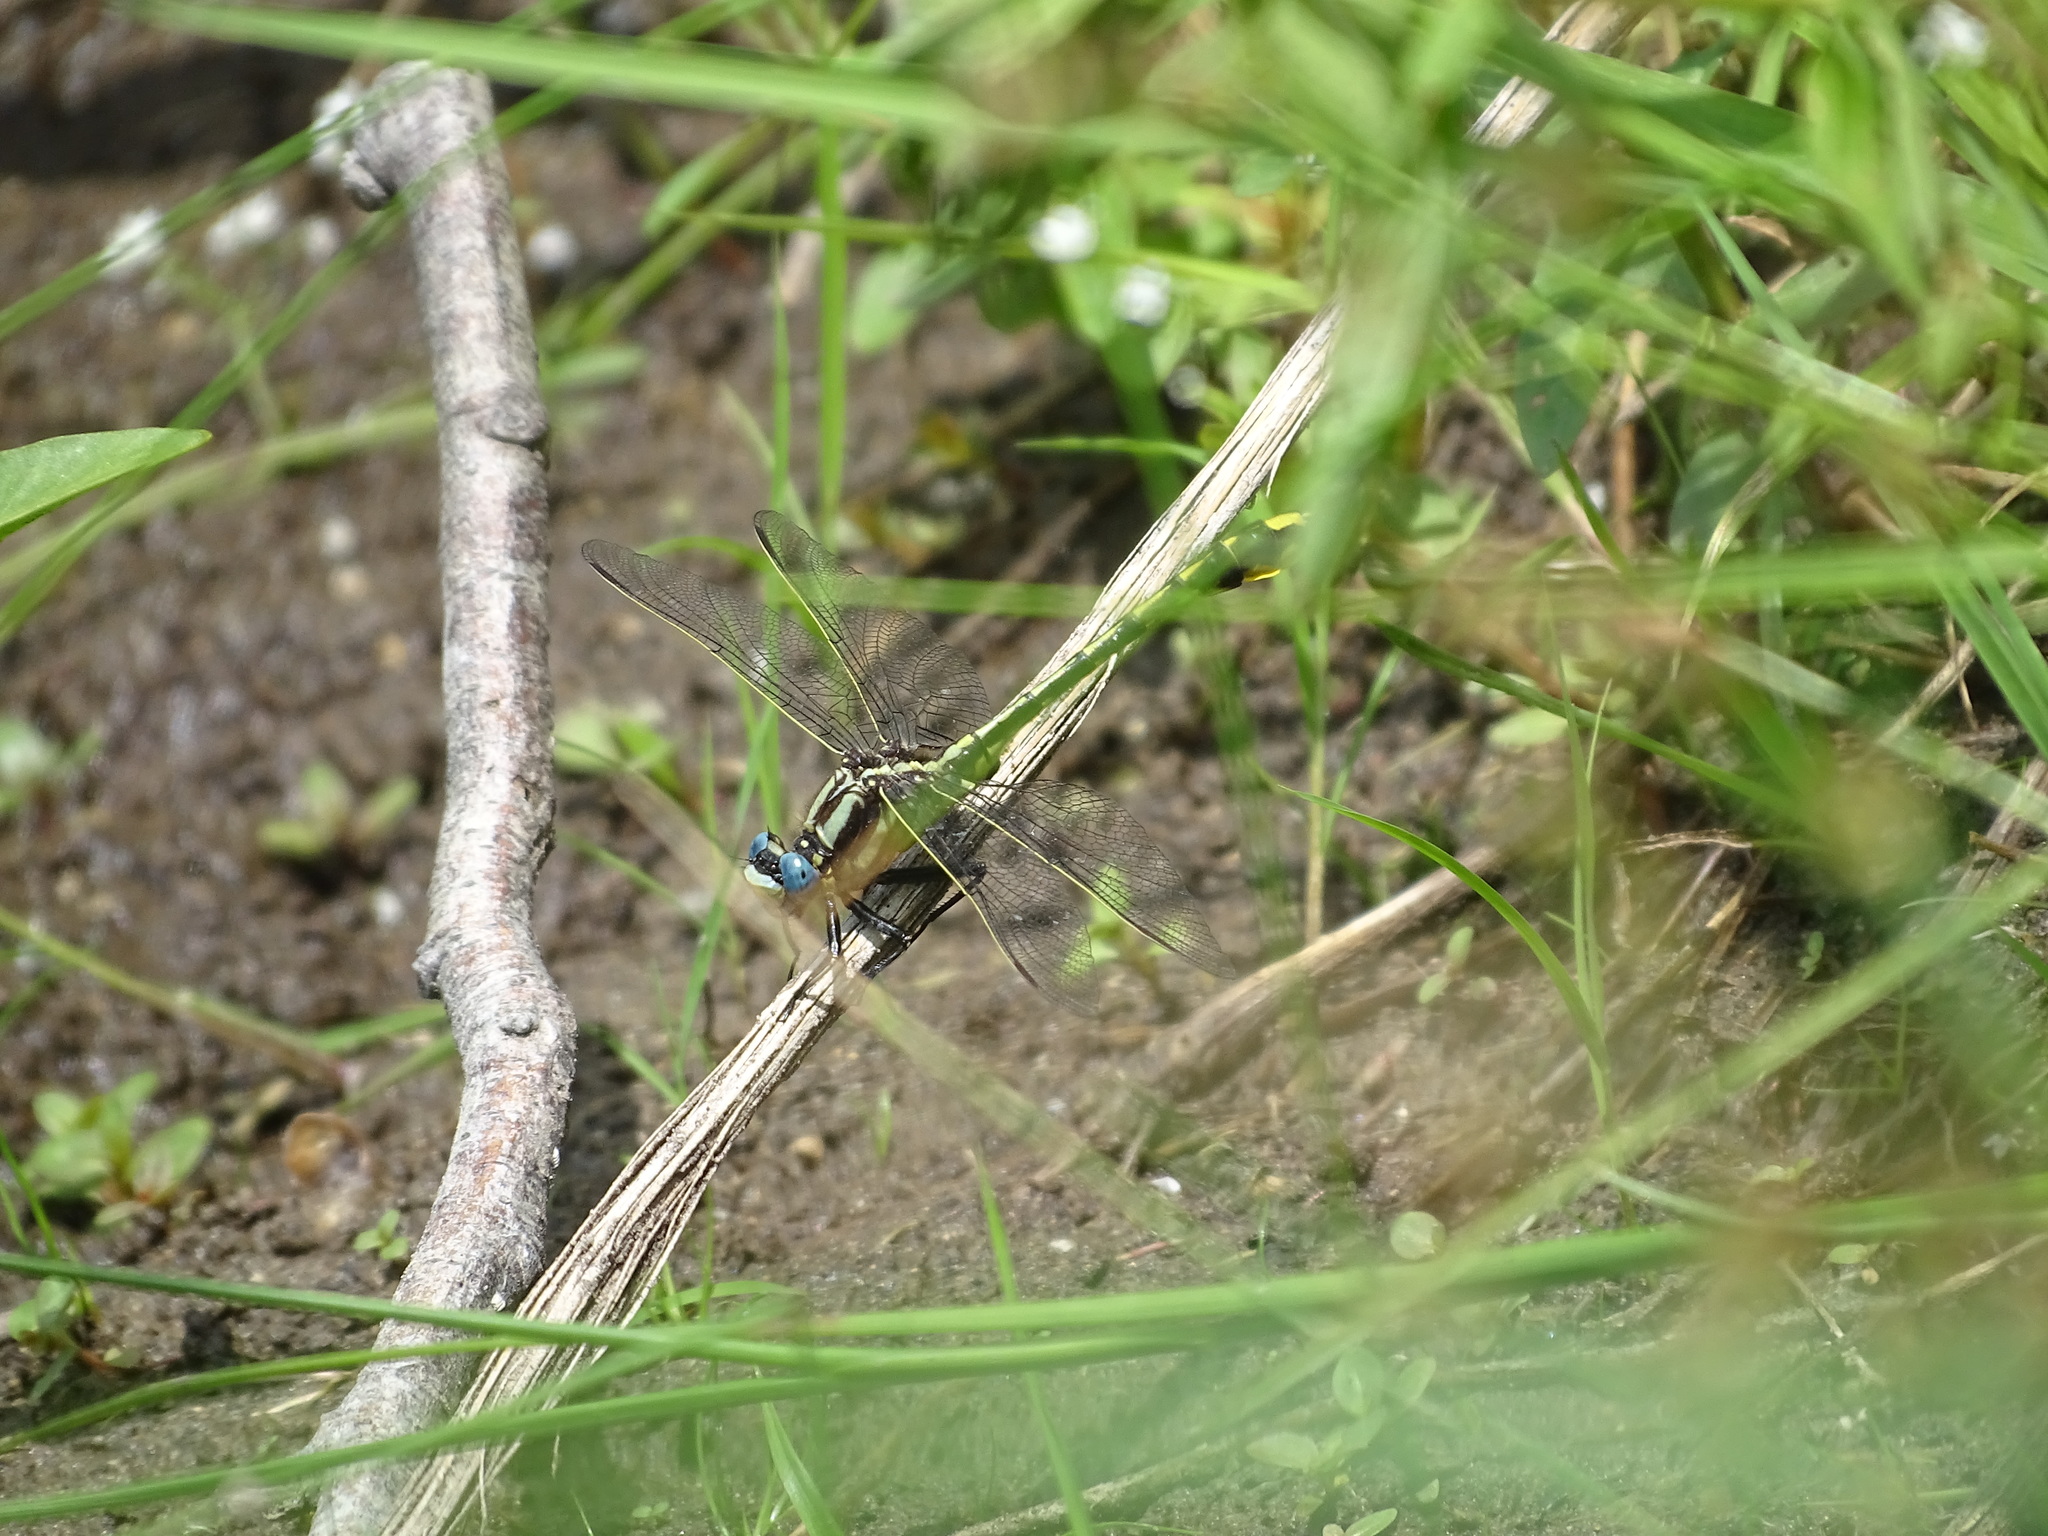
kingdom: Animalia
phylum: Arthropoda
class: Insecta
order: Odonata
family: Gomphidae
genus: Phanogomphus
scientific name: Phanogomphus graslinellus
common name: Pronghorn clubtail
